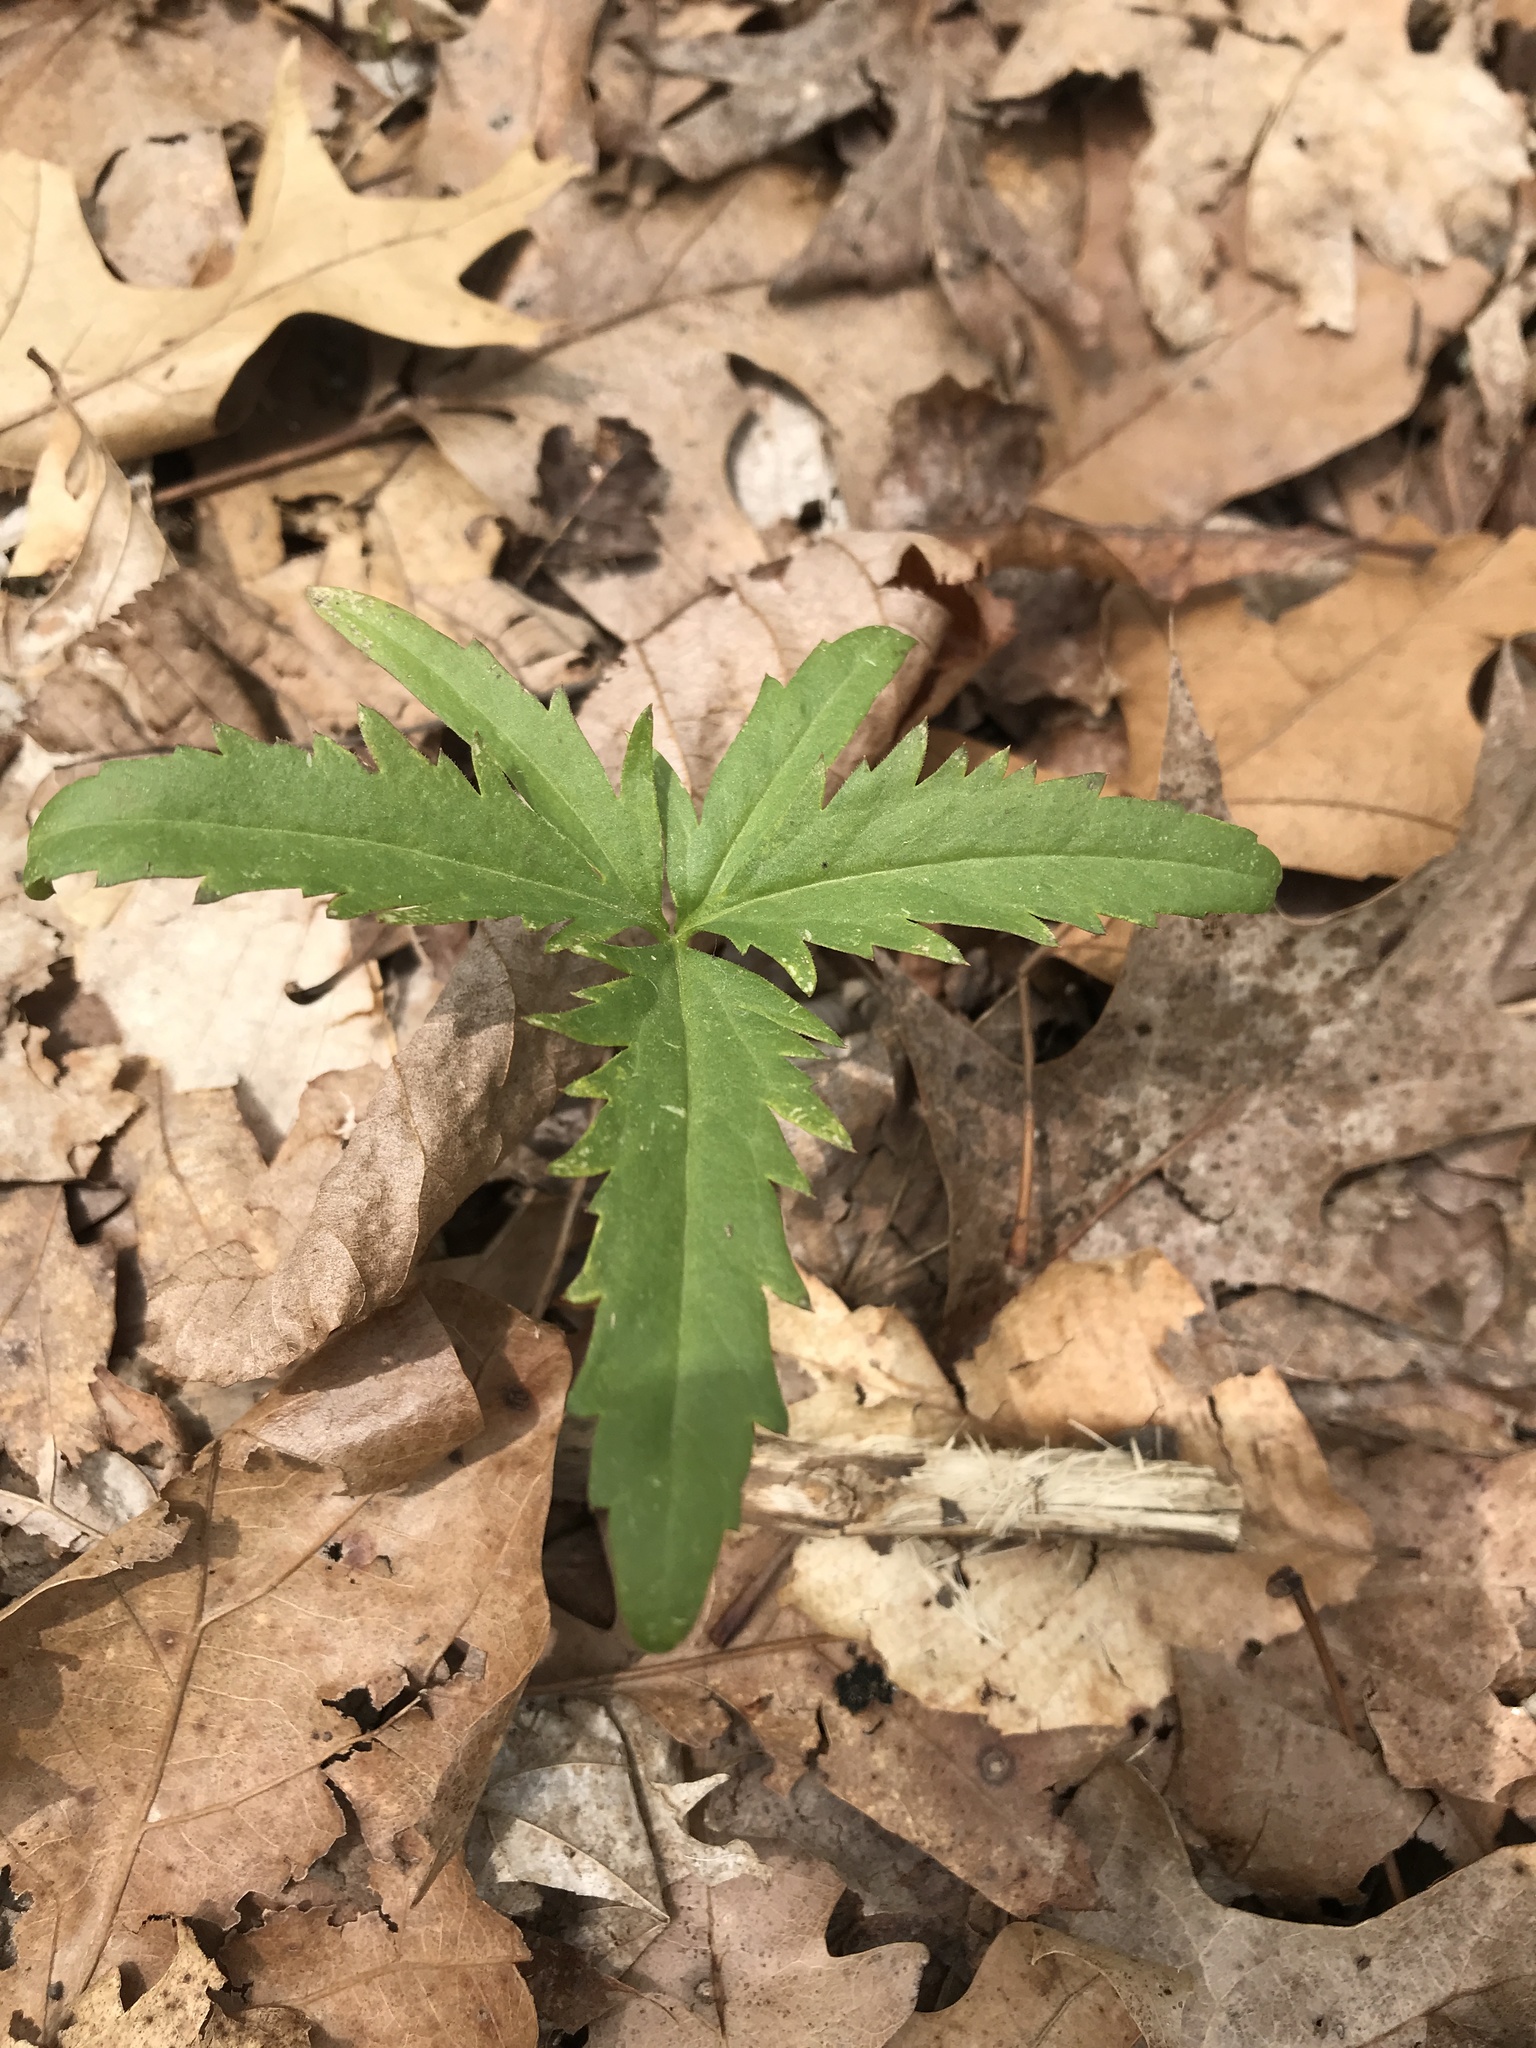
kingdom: Plantae
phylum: Tracheophyta
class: Magnoliopsida
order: Brassicales
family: Brassicaceae
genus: Cardamine
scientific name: Cardamine concatenata
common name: Cut-leaf toothcup
